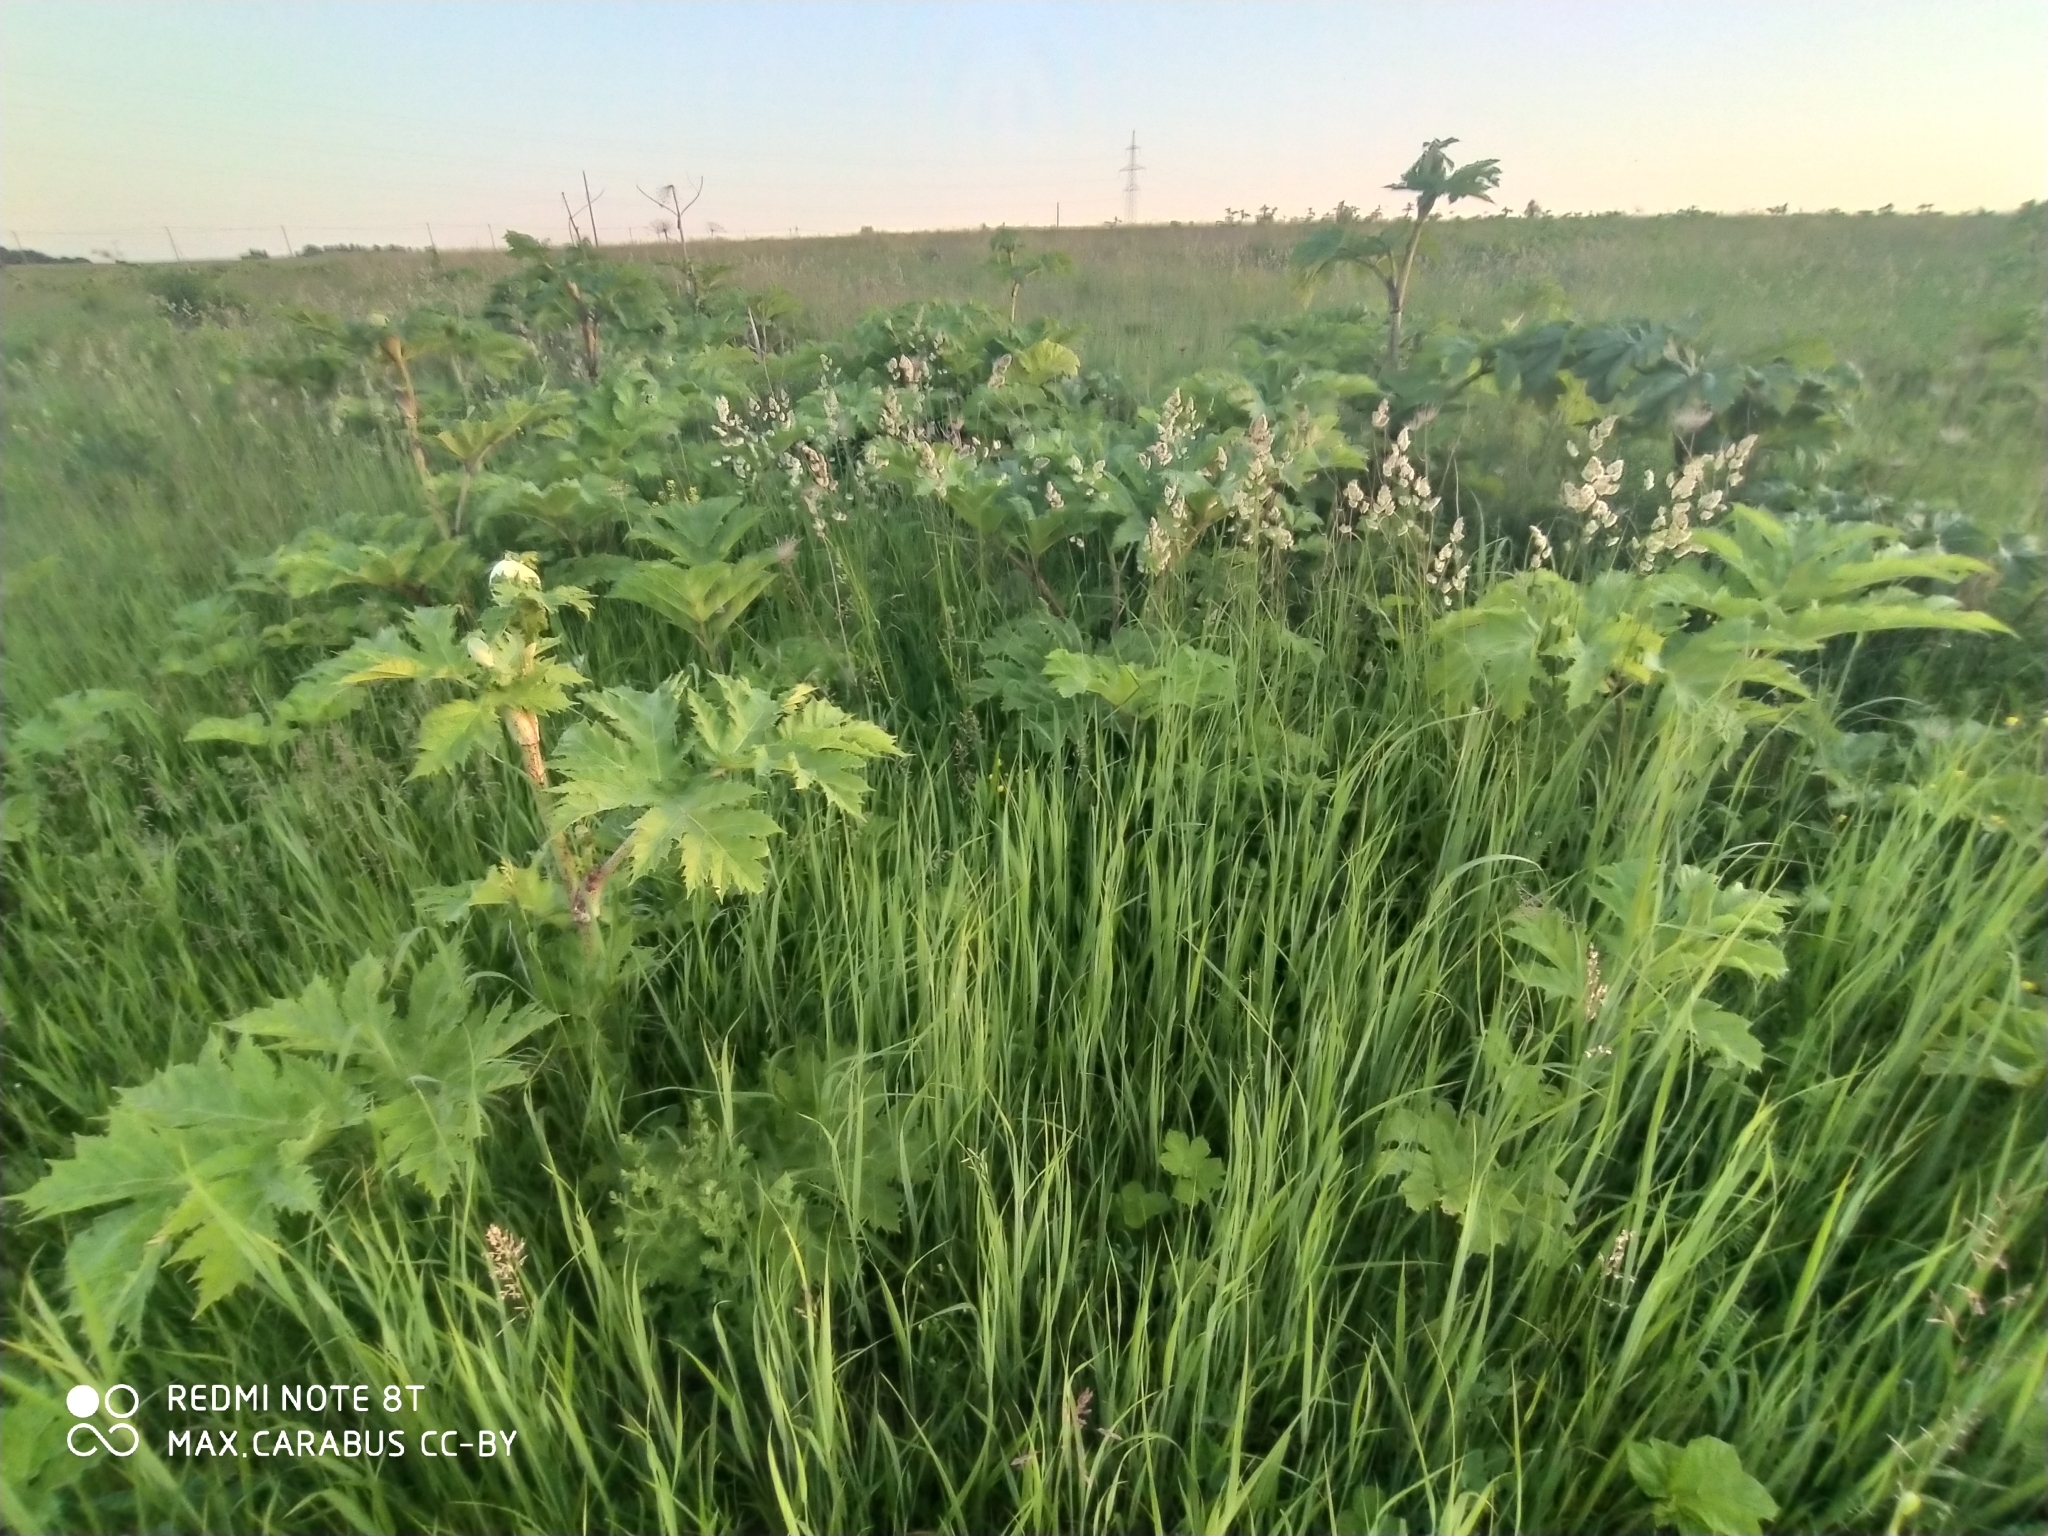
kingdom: Plantae
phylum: Tracheophyta
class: Magnoliopsida
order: Apiales
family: Apiaceae
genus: Heracleum
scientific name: Heracleum sosnowskyi
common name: Sosnowsky's hogweed
